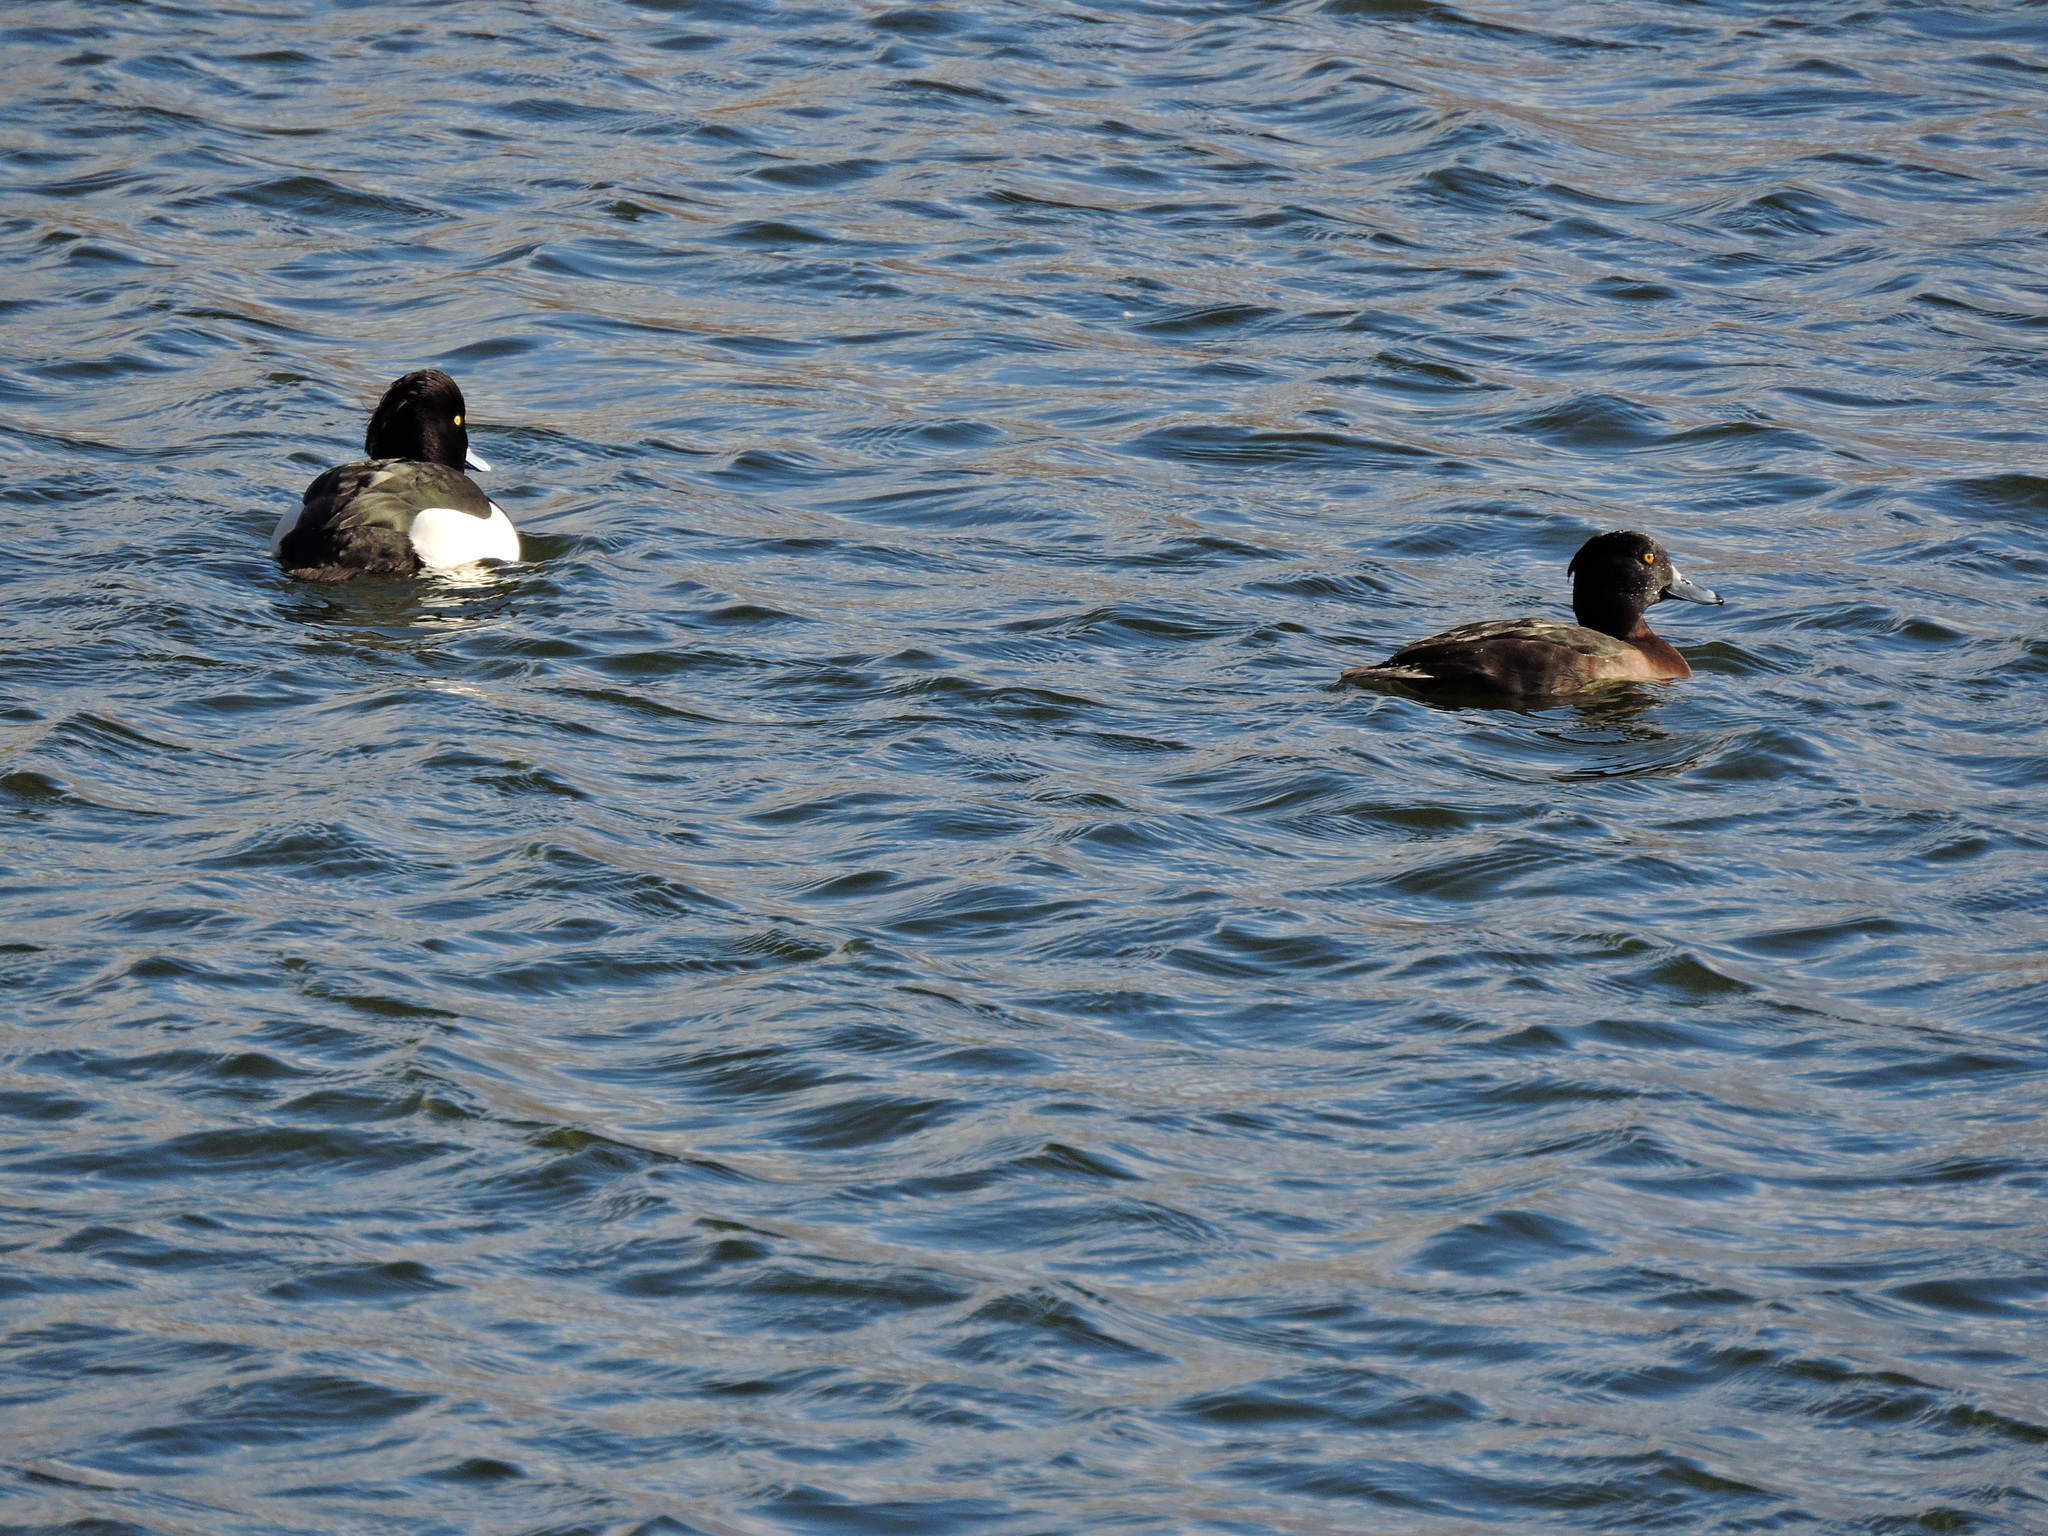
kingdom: Animalia
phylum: Chordata
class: Aves
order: Anseriformes
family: Anatidae
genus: Aythya
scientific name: Aythya fuligula
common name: Tufted duck
